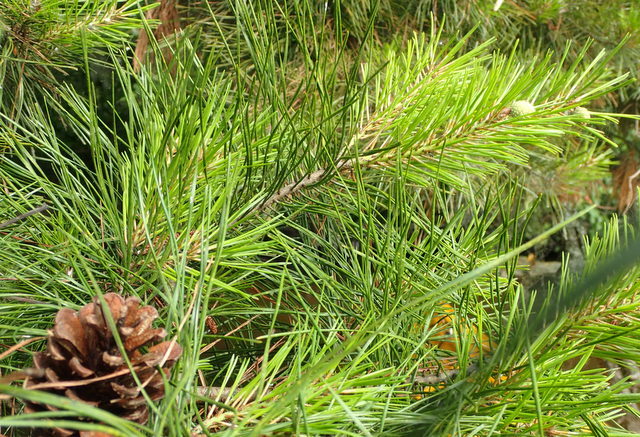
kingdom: Plantae
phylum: Tracheophyta
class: Pinopsida
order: Pinales
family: Pinaceae
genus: Pinus
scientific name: Pinus echinata
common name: Shortleaf pine
